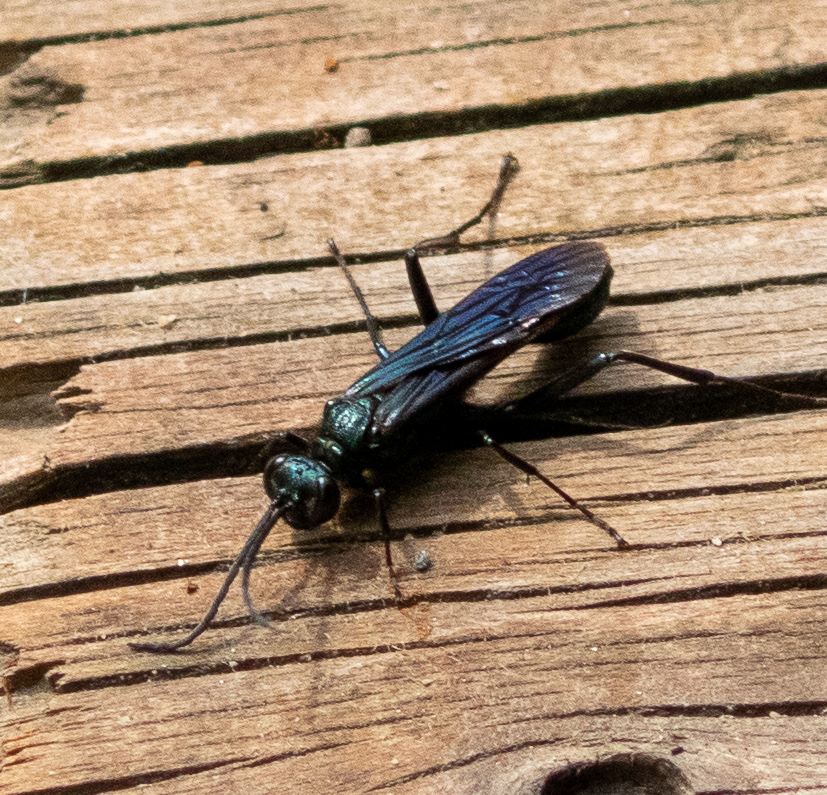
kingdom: Animalia
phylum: Arthropoda
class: Insecta
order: Hymenoptera
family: Sphecidae
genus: Chalybion
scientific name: Chalybion californicum
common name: Mud dauber
